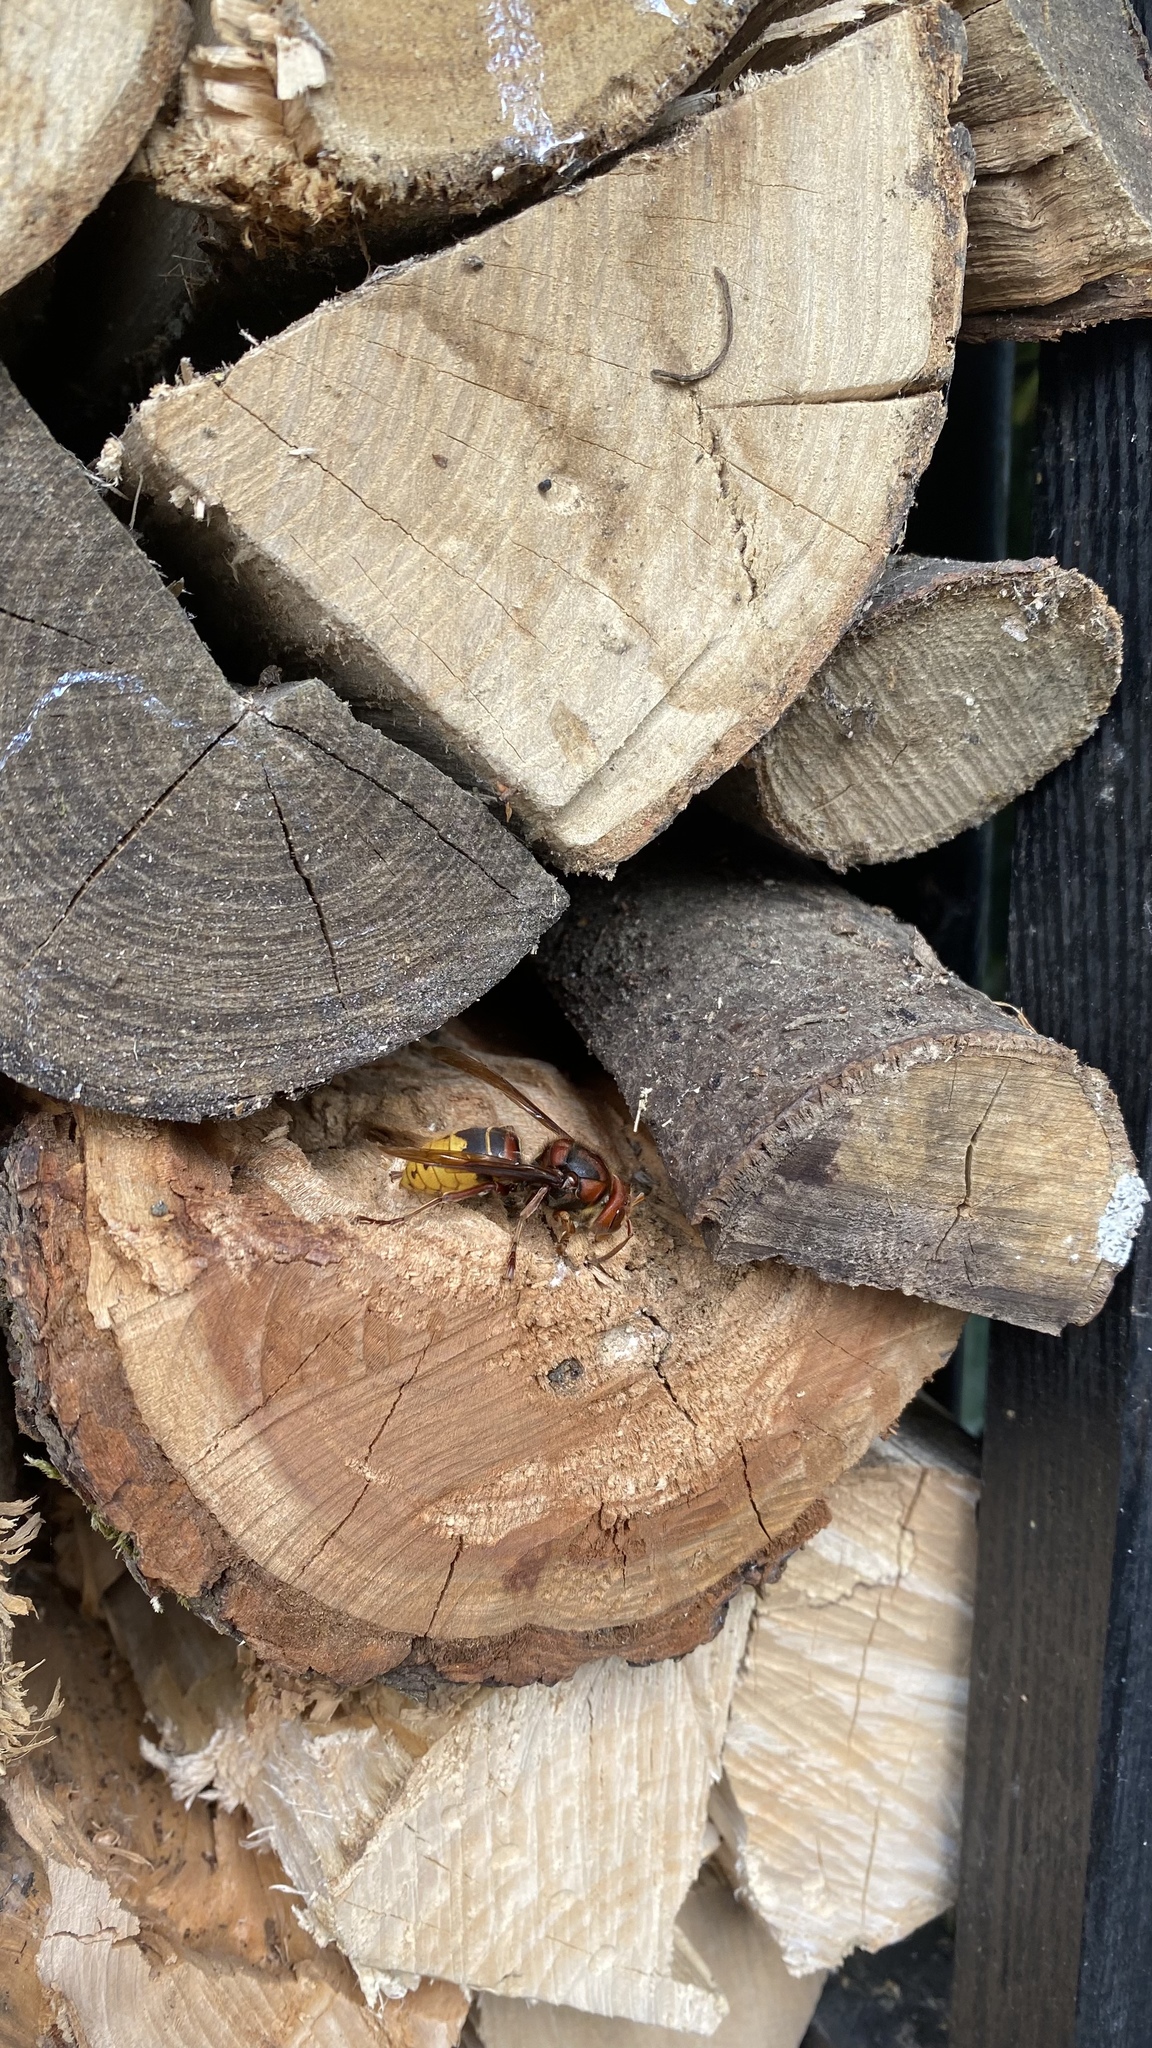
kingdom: Animalia
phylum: Arthropoda
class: Insecta
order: Hymenoptera
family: Vespidae
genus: Vespa
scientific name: Vespa crabro
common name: Hornet
